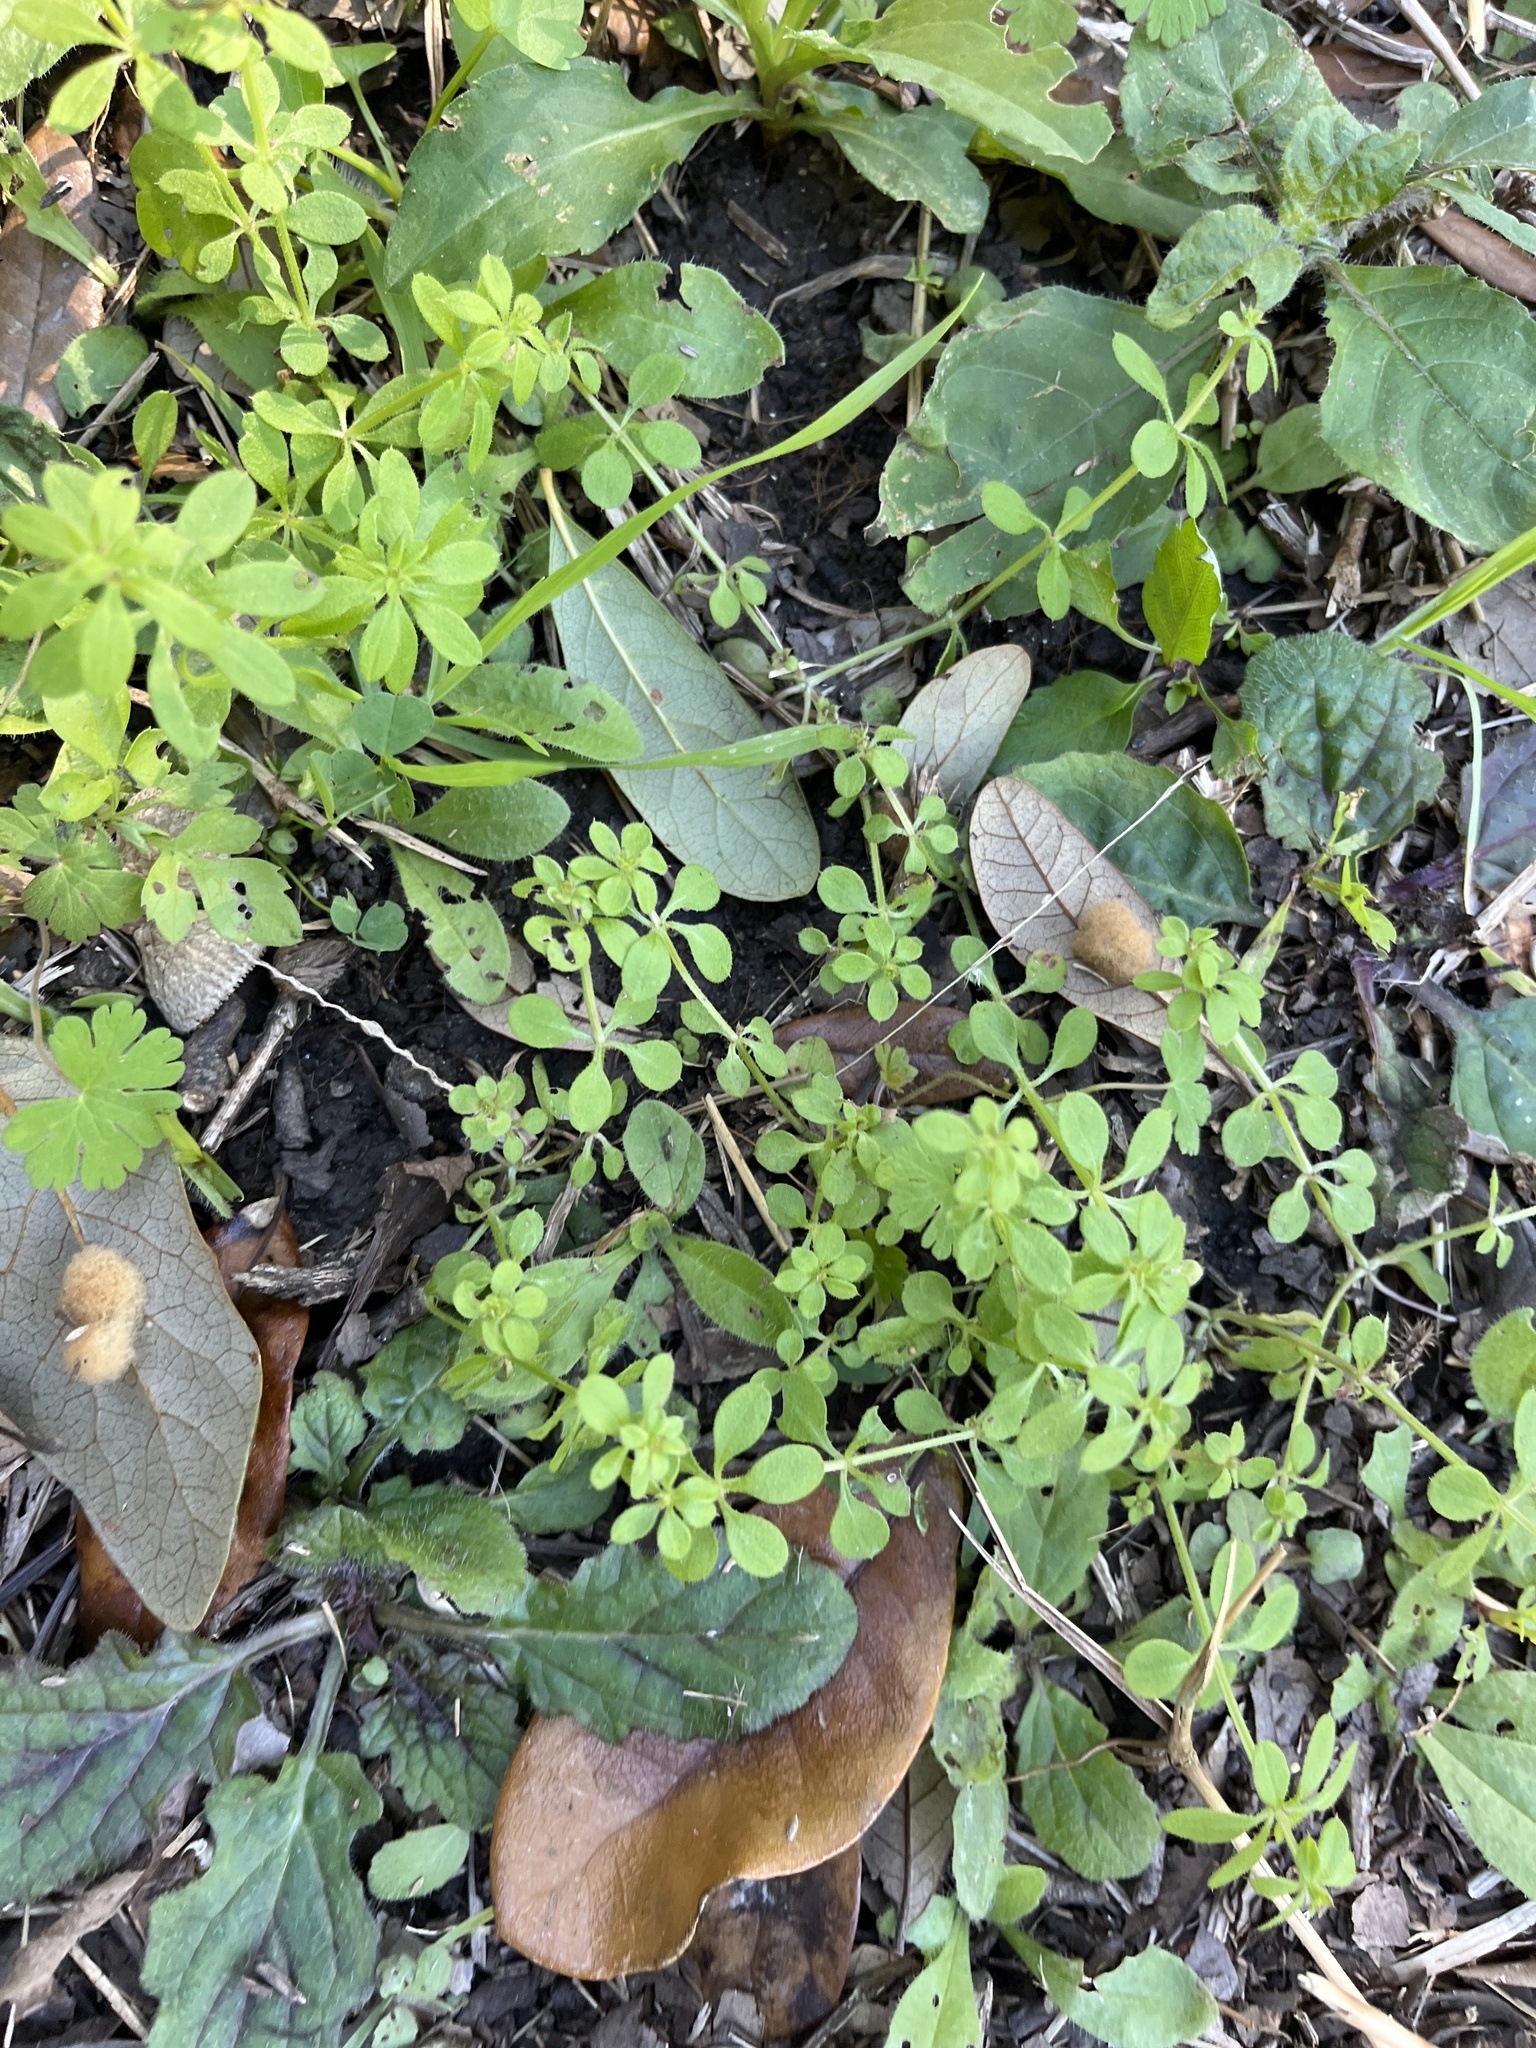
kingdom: Plantae
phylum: Tracheophyta
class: Magnoliopsida
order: Gentianales
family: Rubiaceae
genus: Galium
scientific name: Galium aparine
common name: Cleavers
